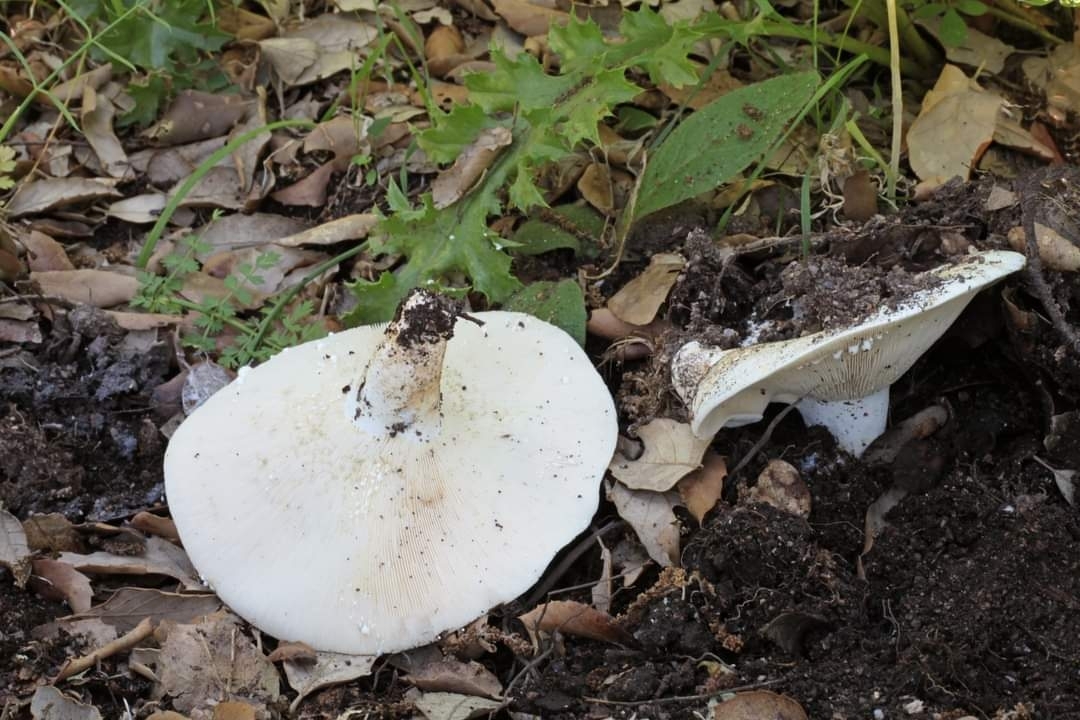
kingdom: Fungi
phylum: Basidiomycota
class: Agaricomycetes
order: Russulales
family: Russulaceae
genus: Lactifluus
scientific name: Lactifluus glaucescens
